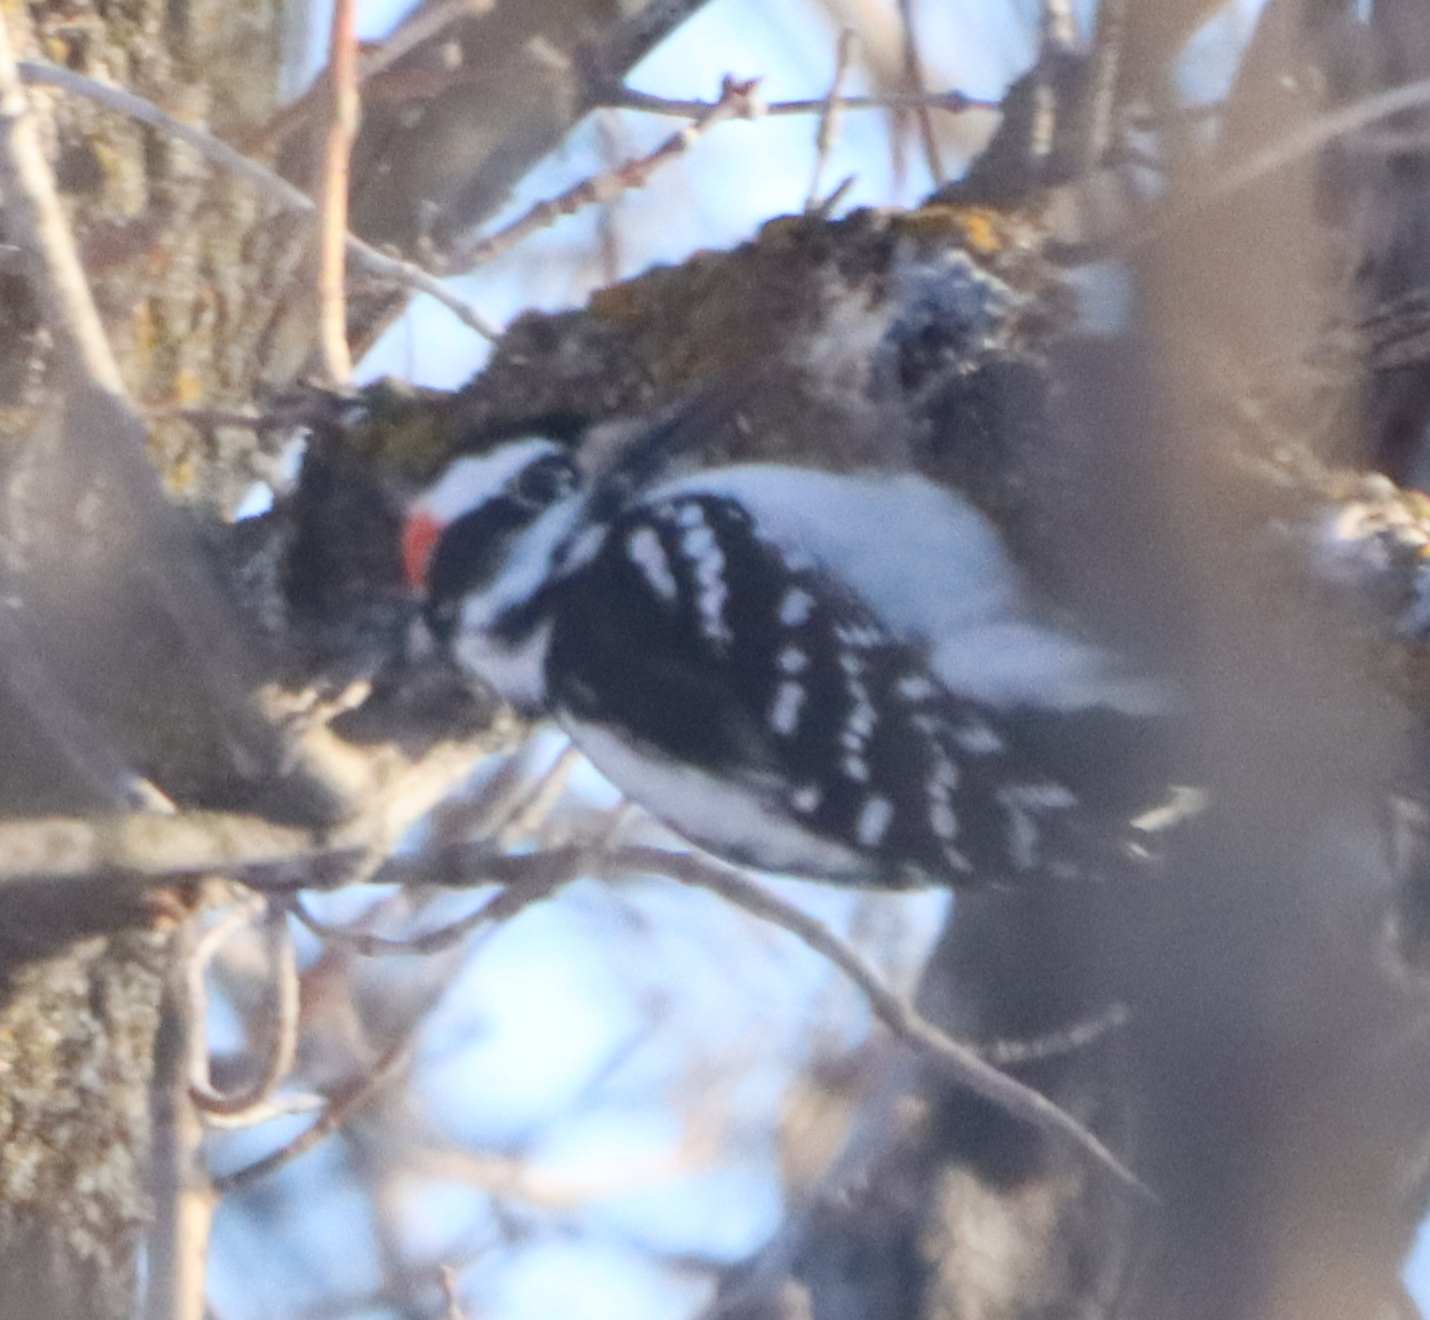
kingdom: Animalia
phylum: Chordata
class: Aves
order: Piciformes
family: Picidae
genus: Leuconotopicus
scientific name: Leuconotopicus villosus
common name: Hairy woodpecker
